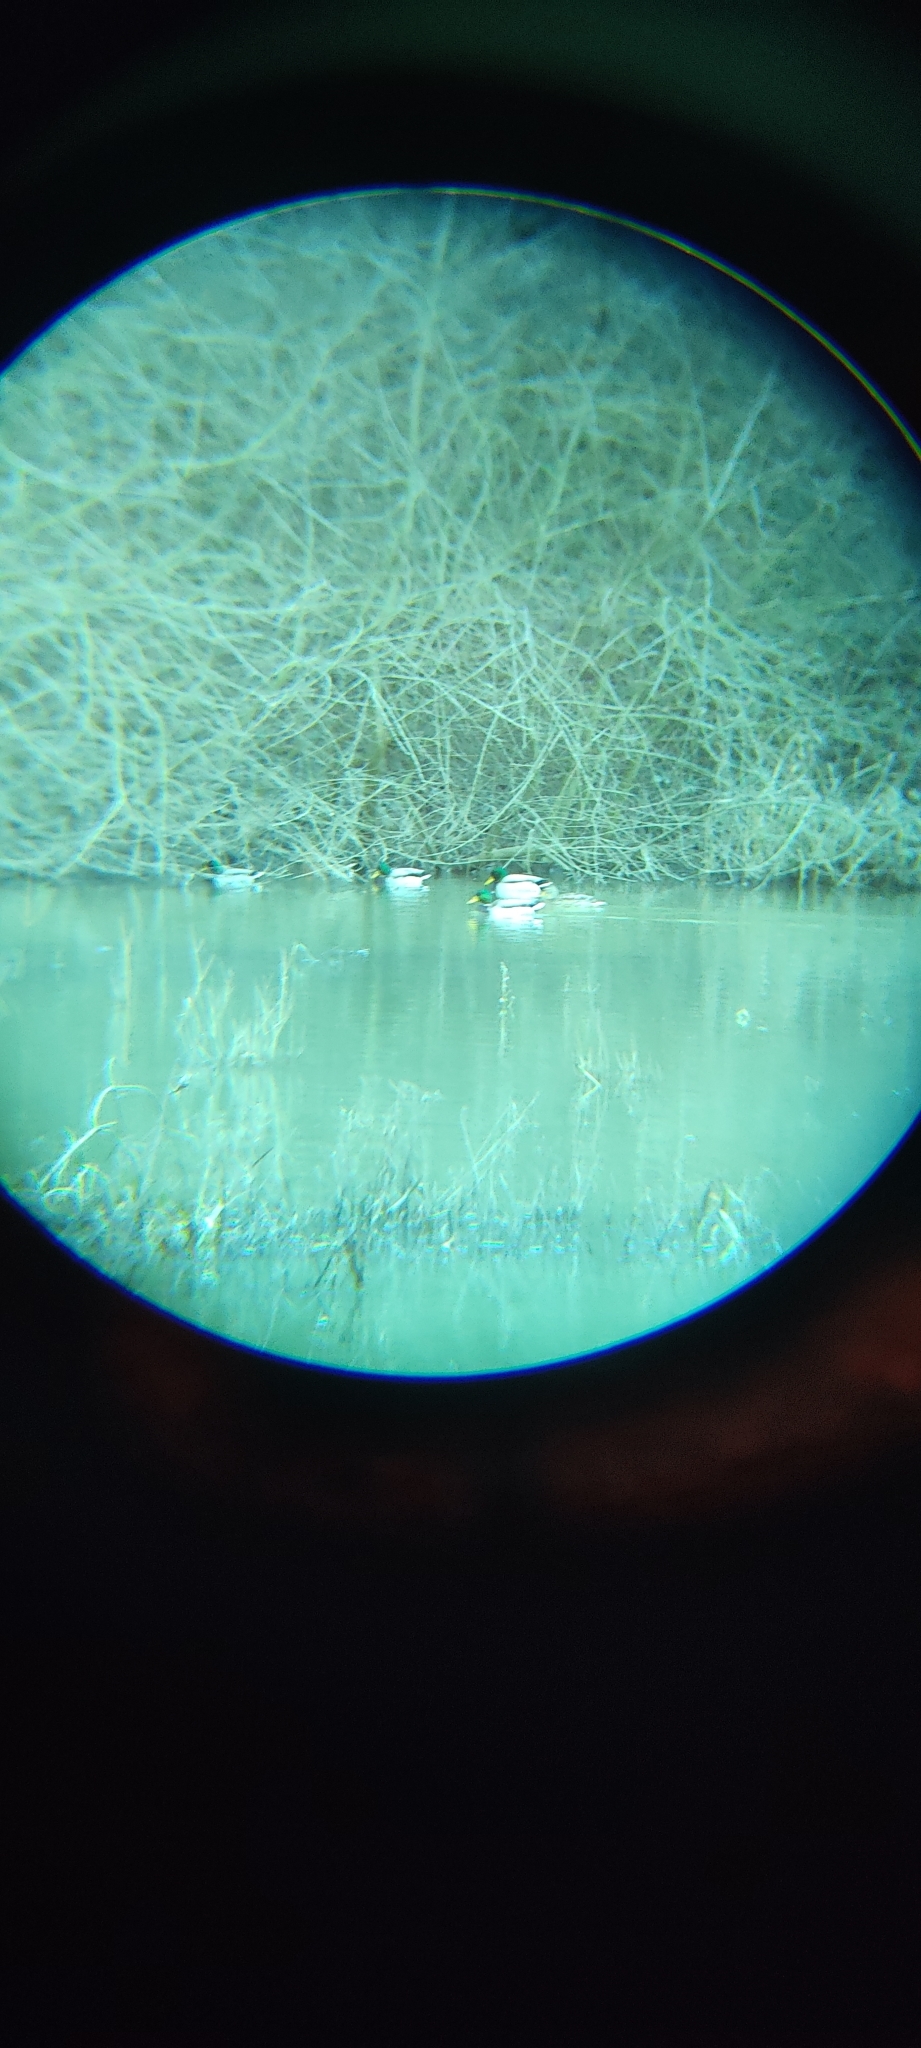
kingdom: Animalia
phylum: Chordata
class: Aves
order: Anseriformes
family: Anatidae
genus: Anas
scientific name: Anas platyrhynchos
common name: Mallard
